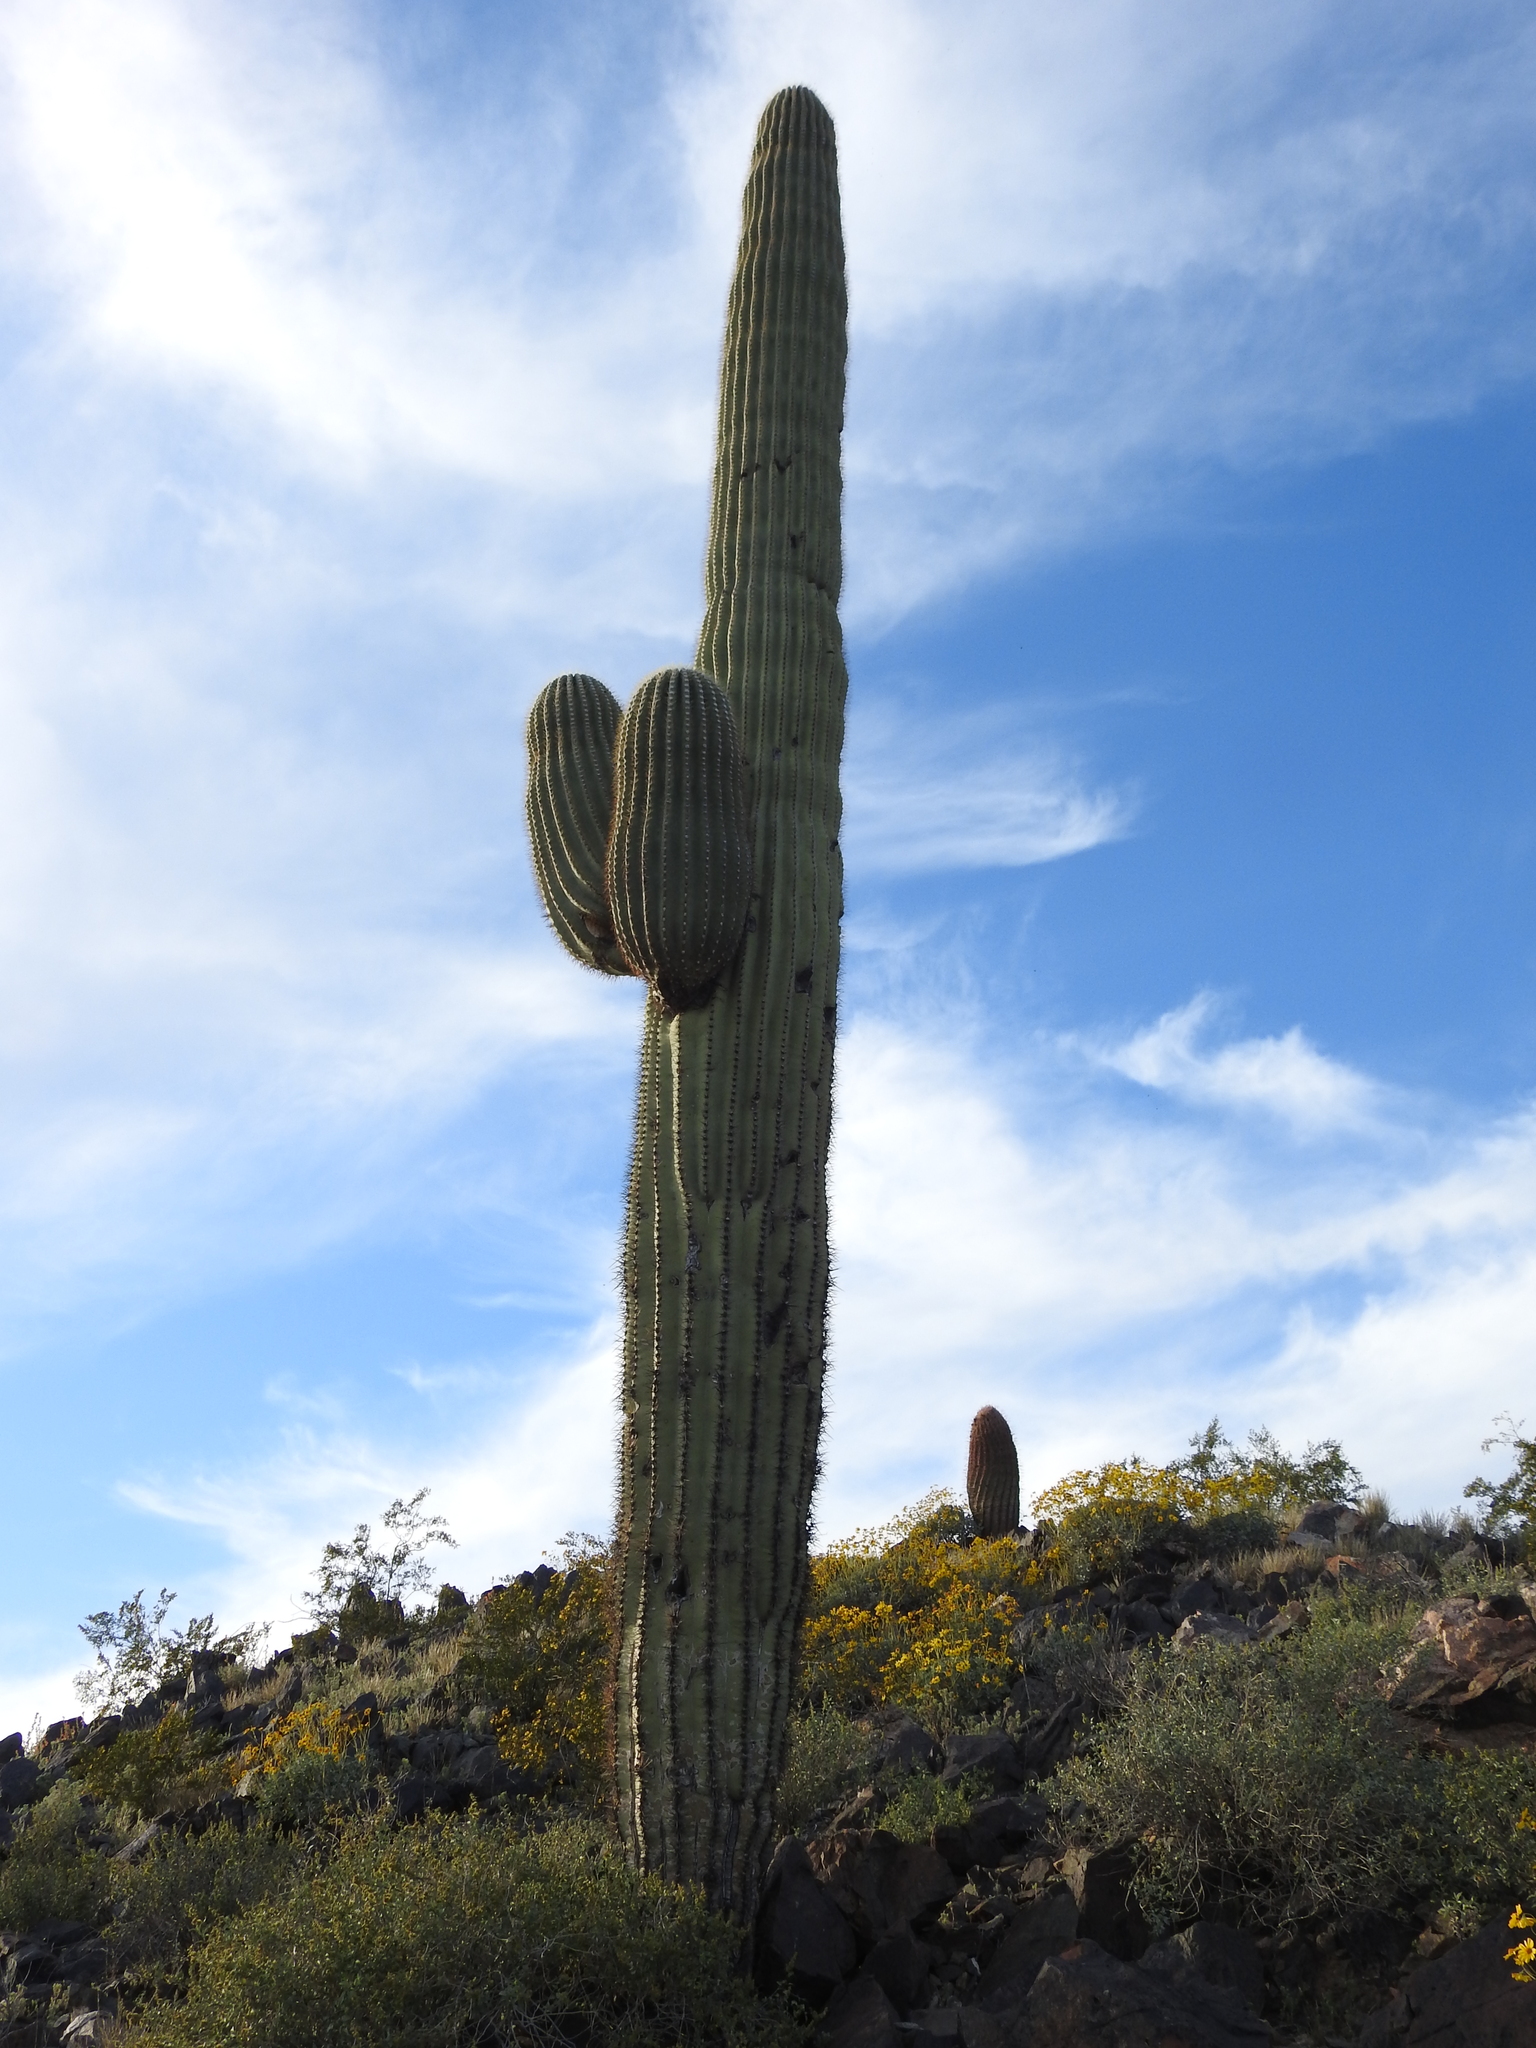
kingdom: Plantae
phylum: Tracheophyta
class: Magnoliopsida
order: Caryophyllales
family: Cactaceae
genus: Carnegiea
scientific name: Carnegiea gigantea
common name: Saguaro
